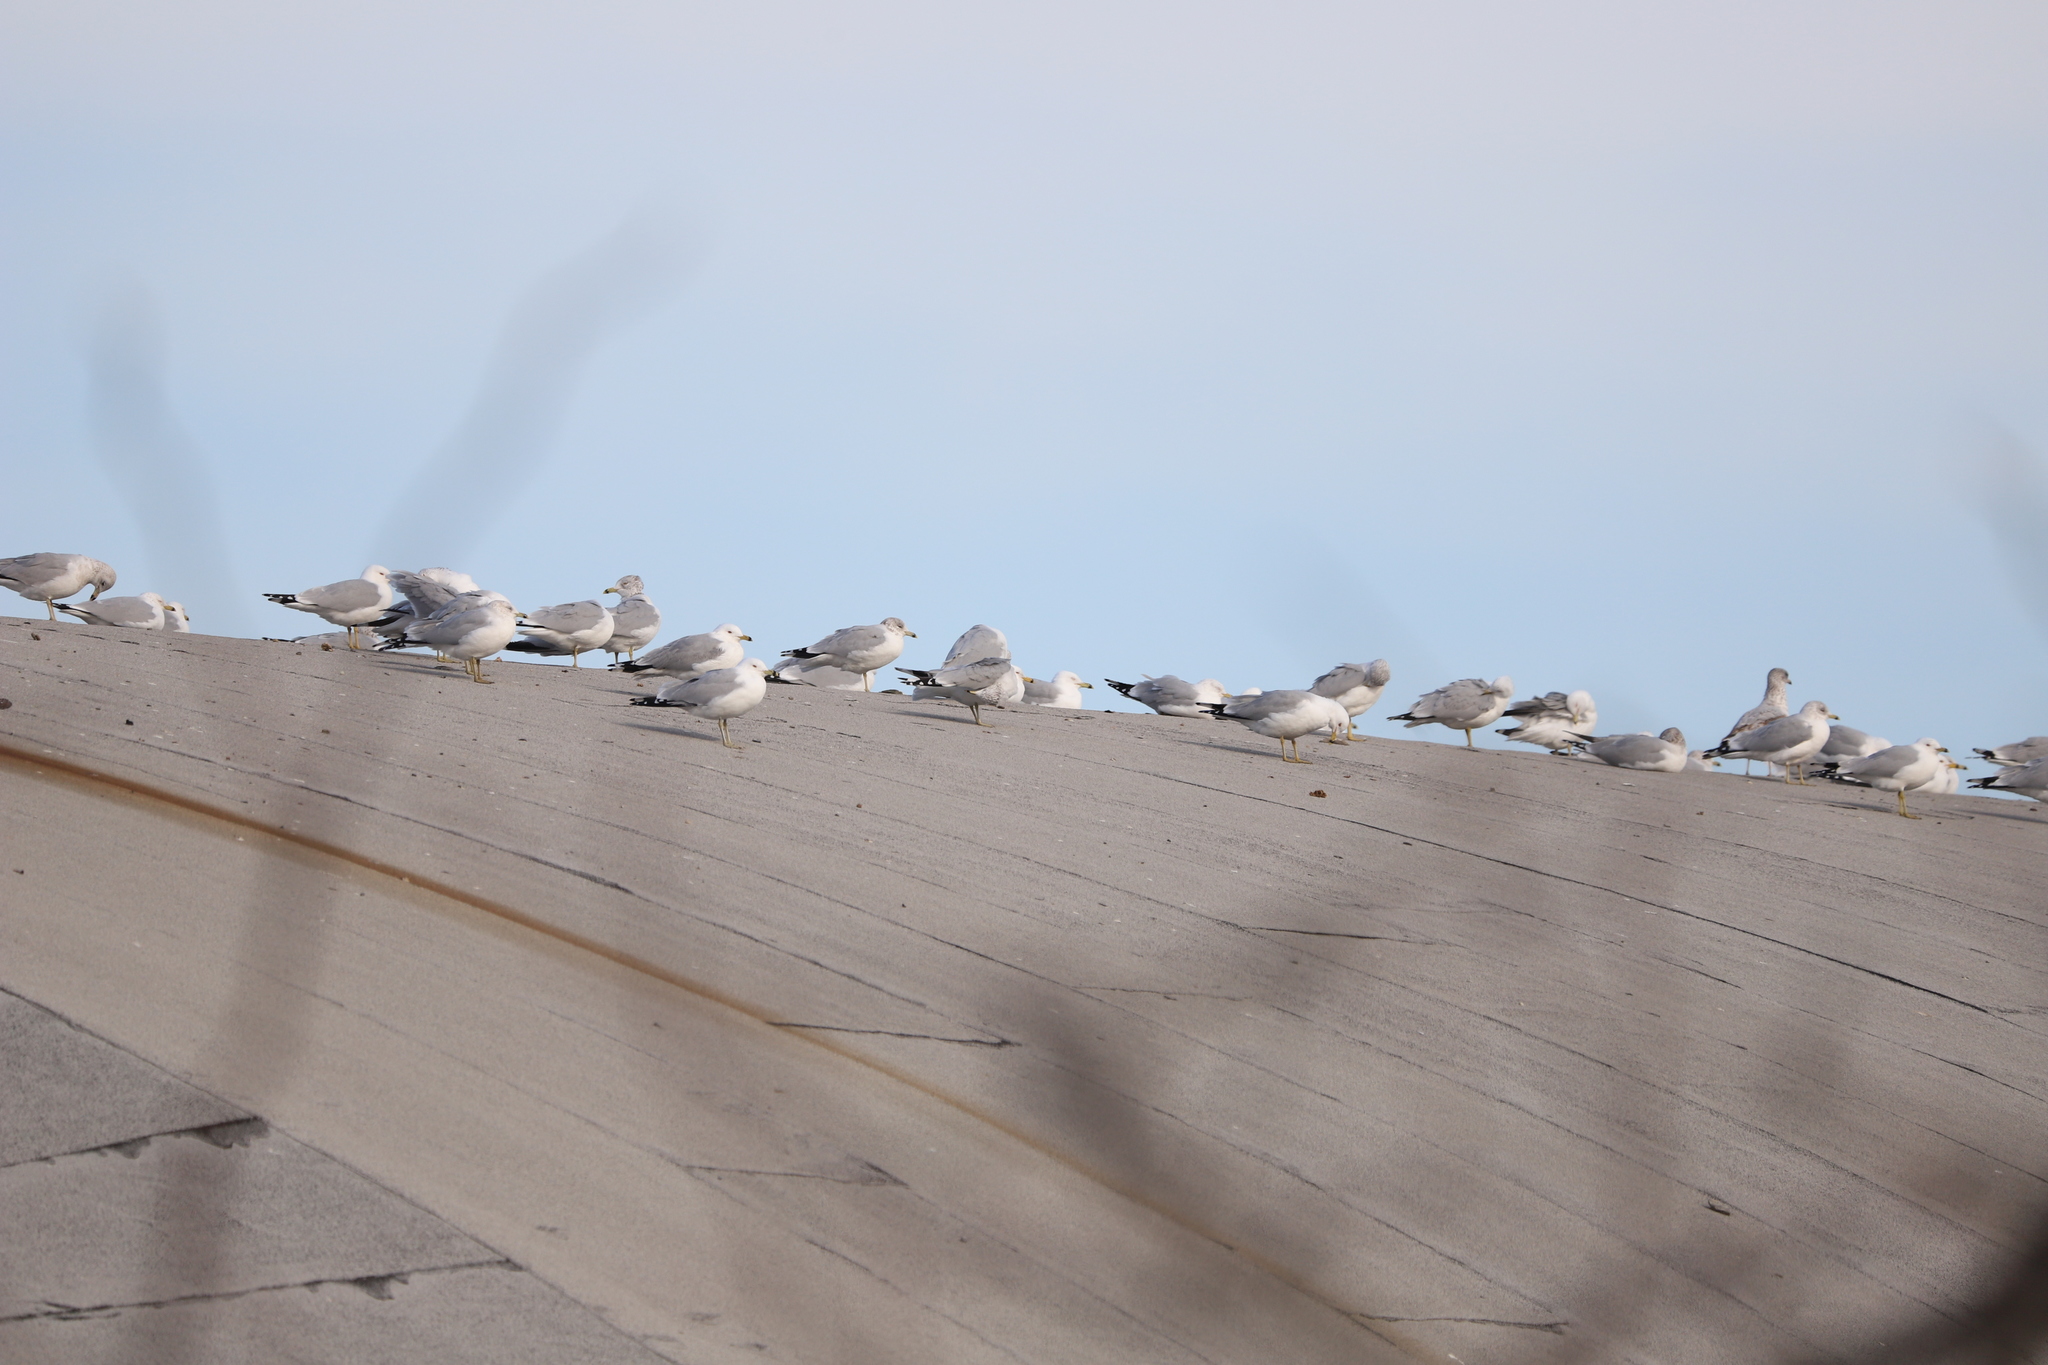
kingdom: Animalia
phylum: Chordata
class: Aves
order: Charadriiformes
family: Laridae
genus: Larus
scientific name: Larus delawarensis
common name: Ring-billed gull
